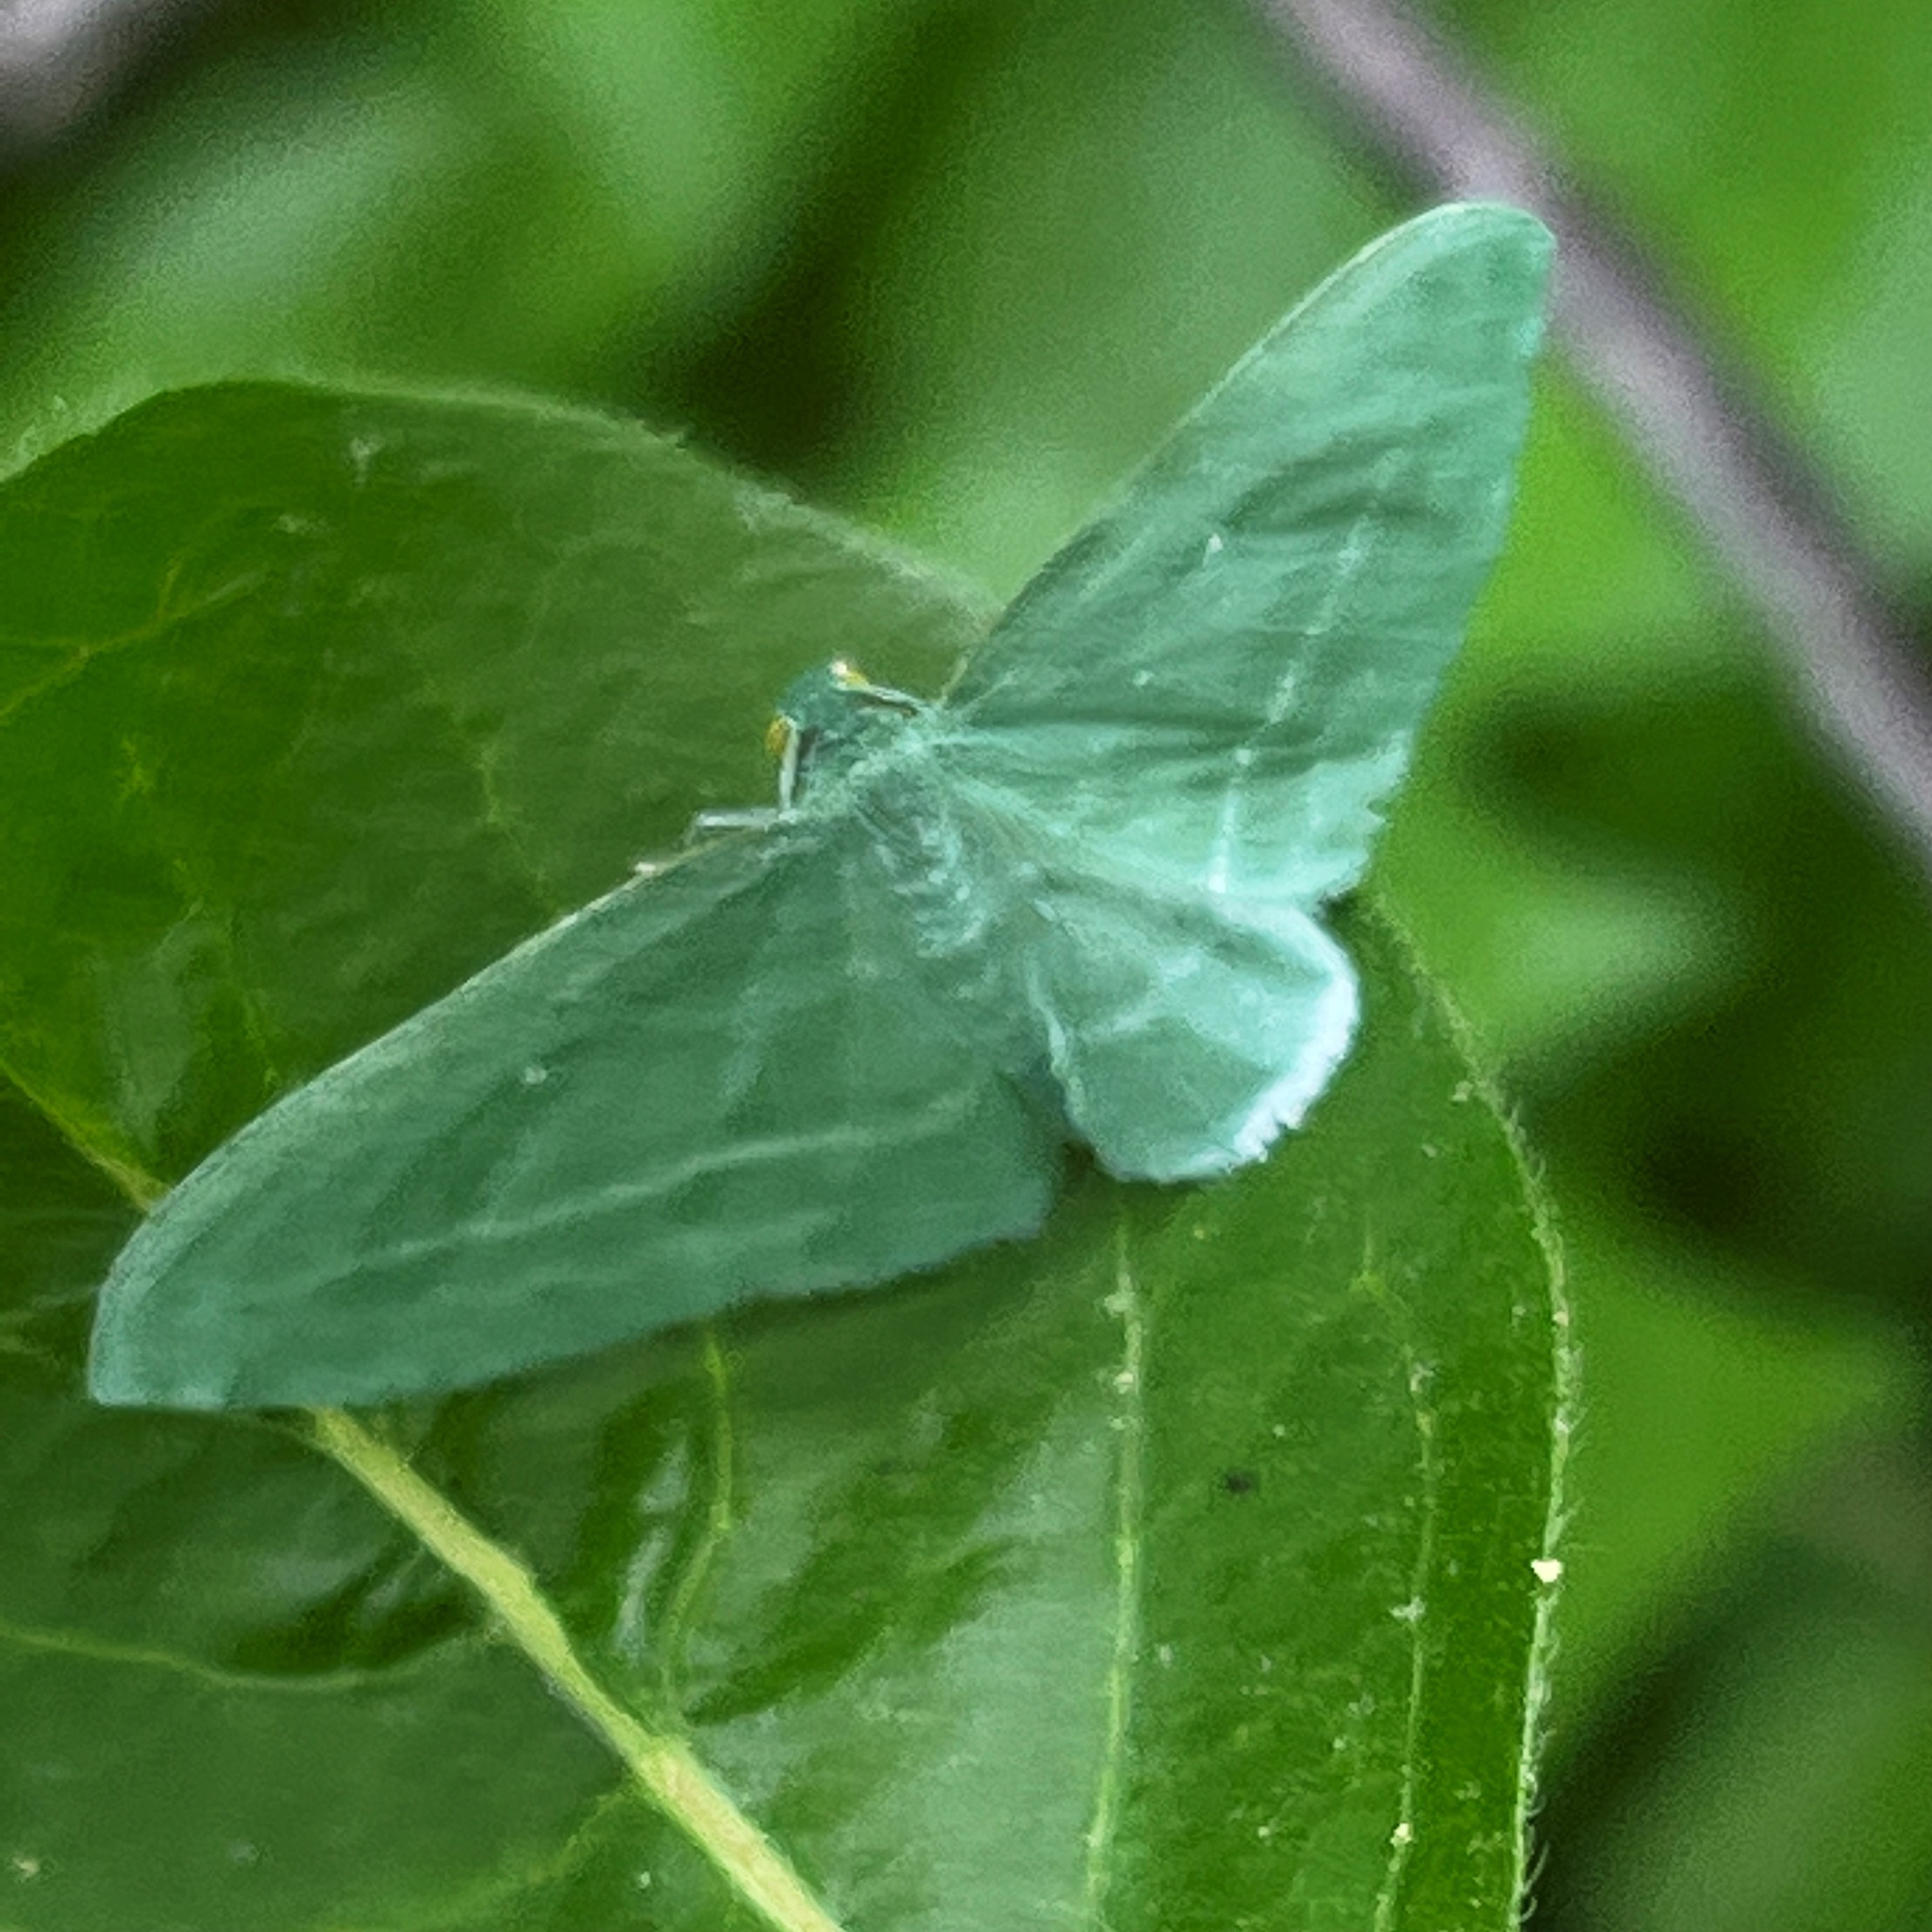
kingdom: Animalia
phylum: Arthropoda
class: Insecta
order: Lepidoptera
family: Geometridae
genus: Dyspteris
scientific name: Dyspteris abortivaria
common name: Bad-wing
